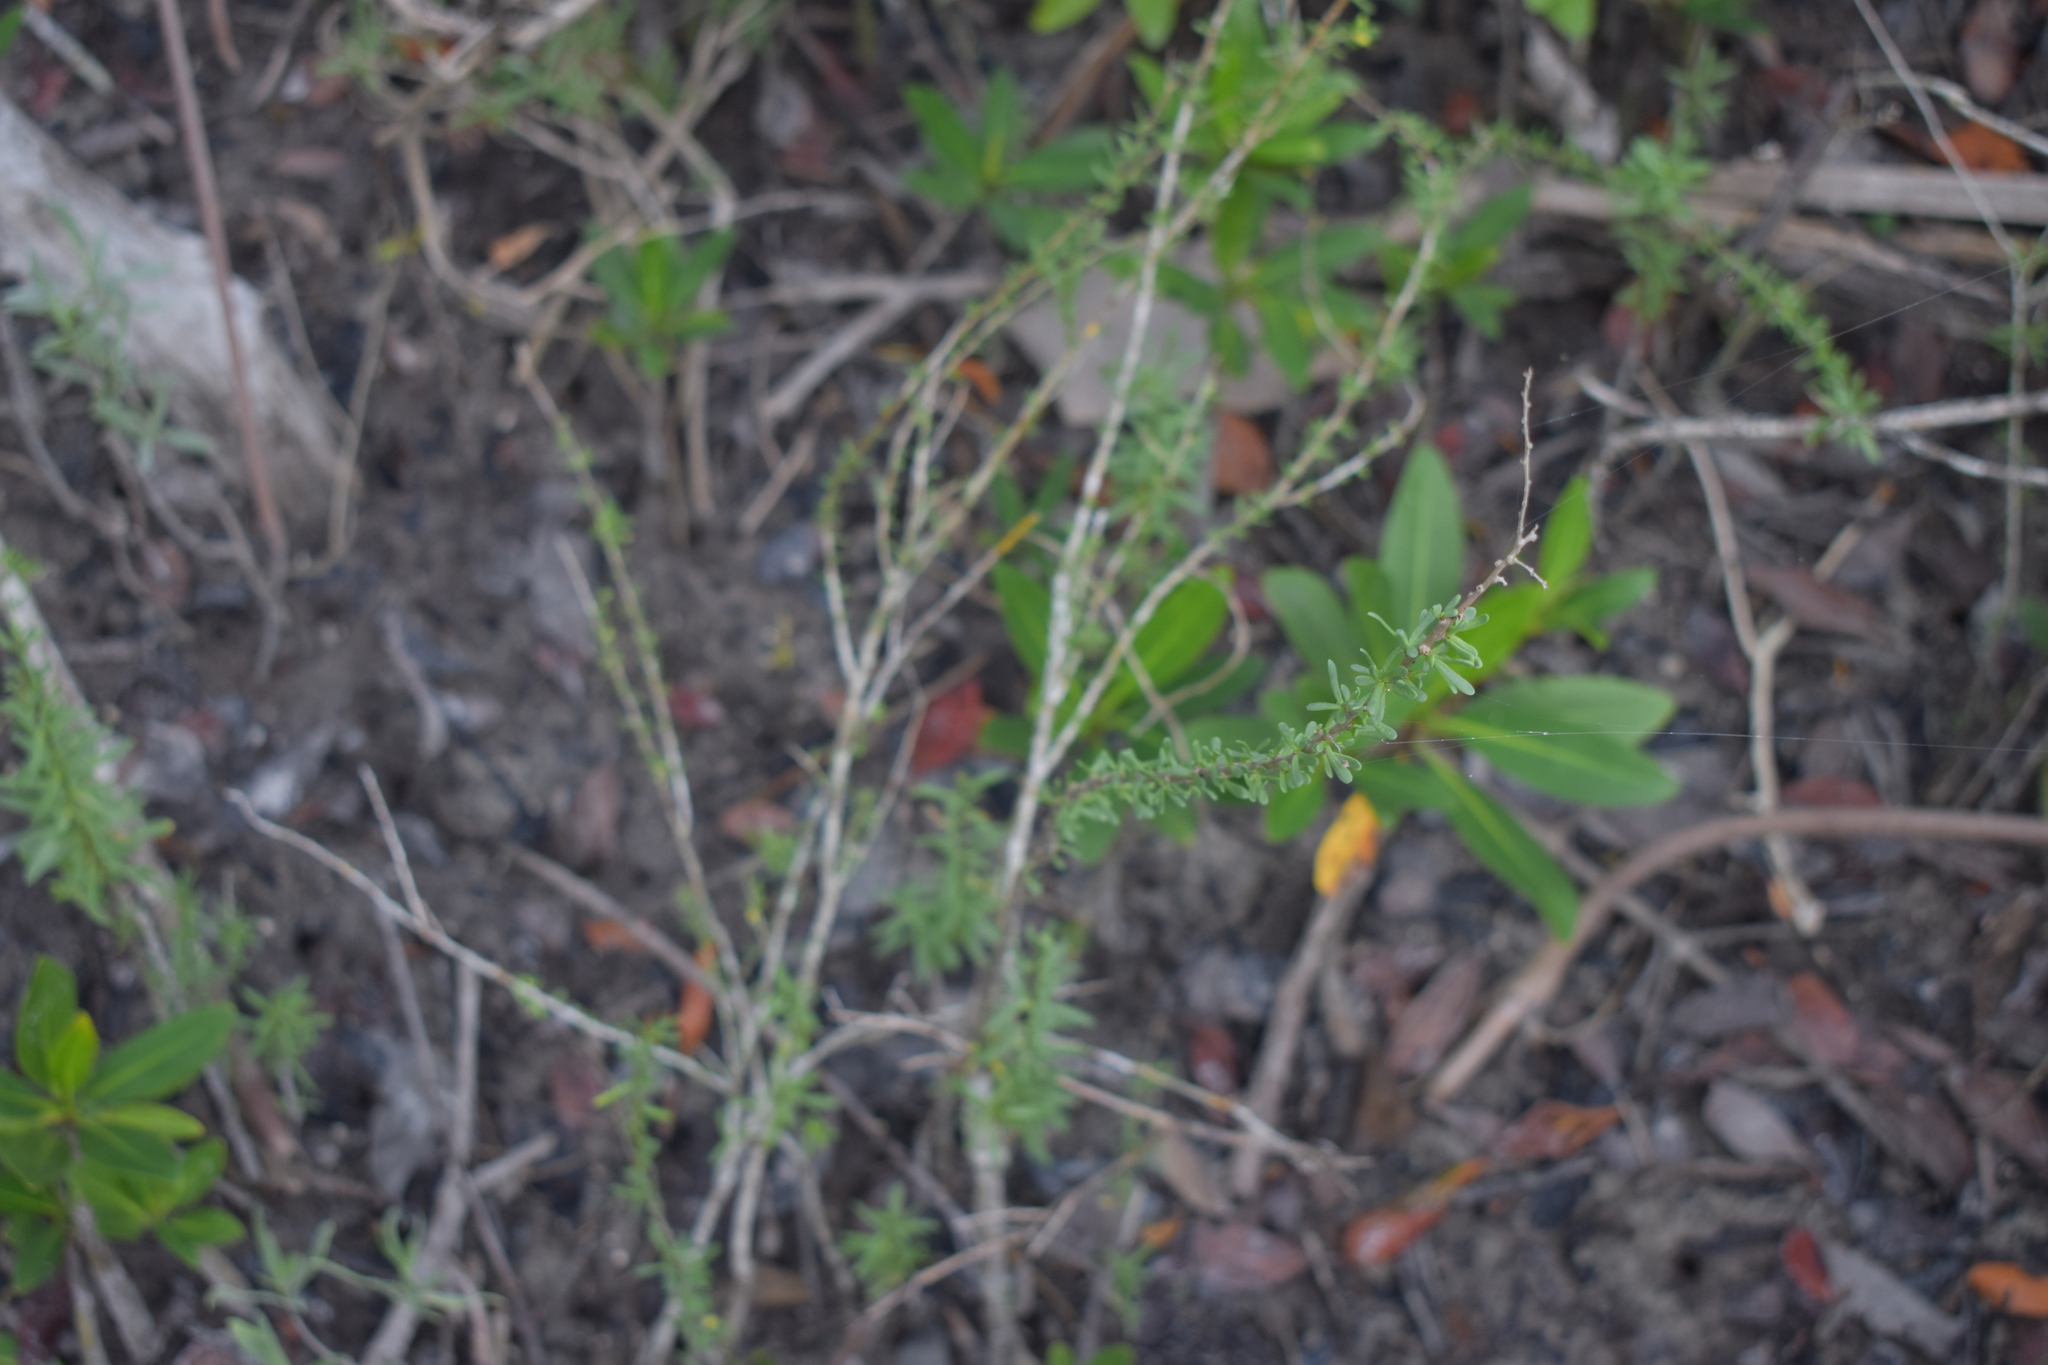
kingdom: Plantae
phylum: Tracheophyta
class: Magnoliopsida
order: Solanales
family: Solanaceae
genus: Lycium
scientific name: Lycium carolinianum
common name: Christmasberry
